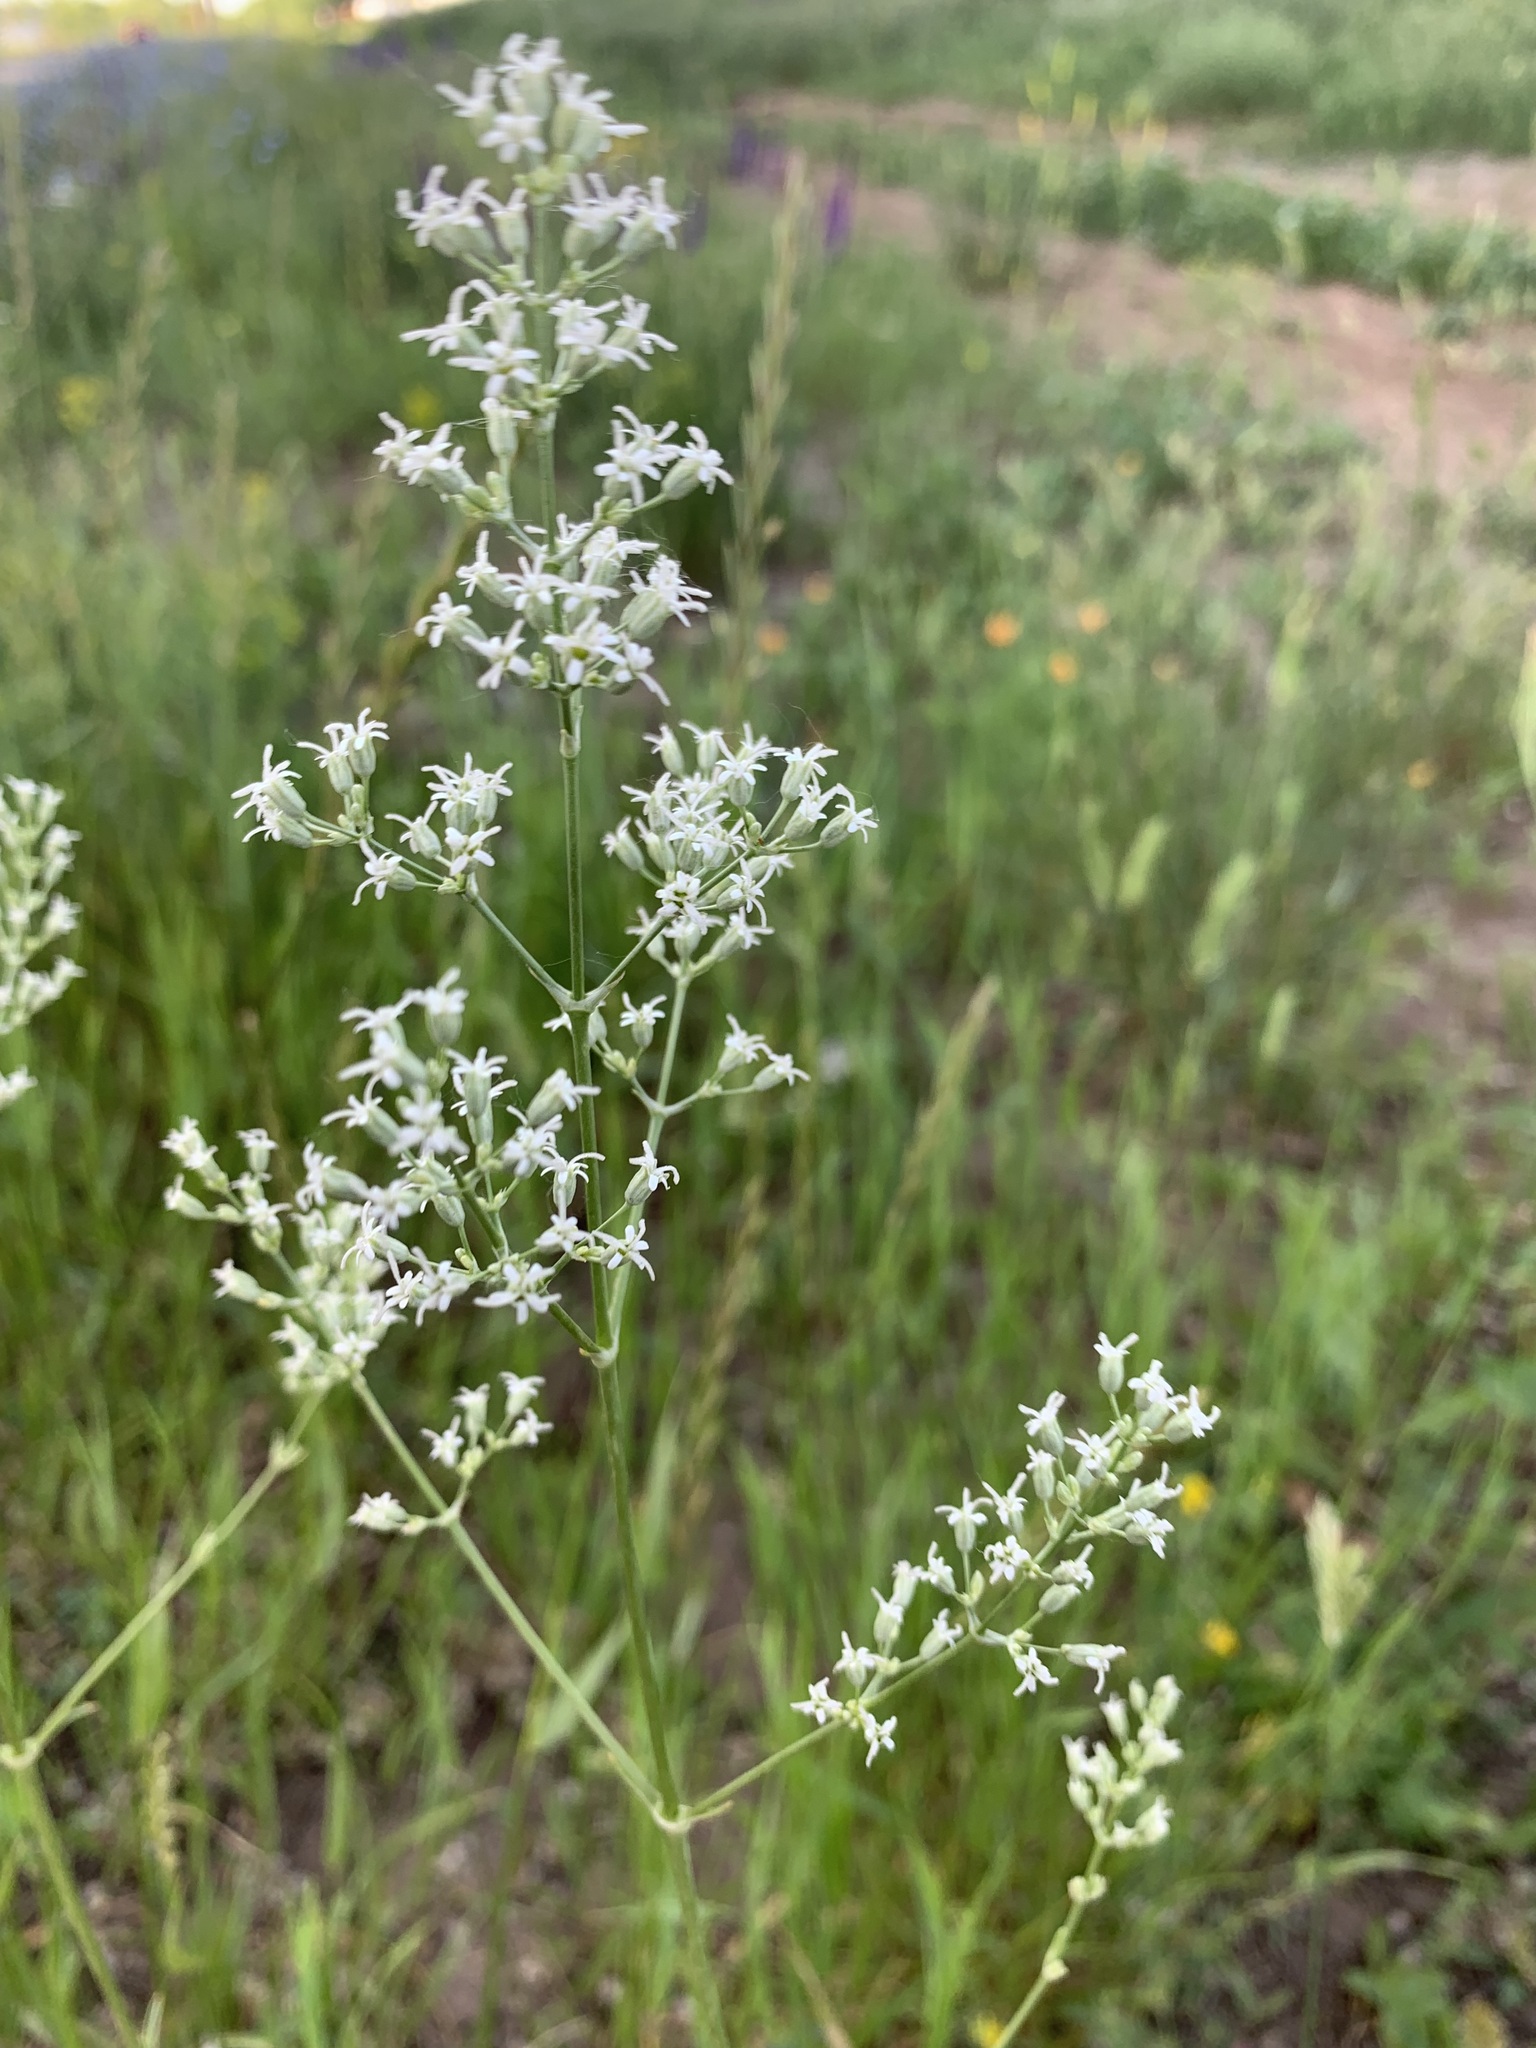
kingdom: Plantae
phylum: Tracheophyta
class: Magnoliopsida
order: Caryophyllales
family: Caryophyllaceae
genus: Silene
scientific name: Silene wolgensis
